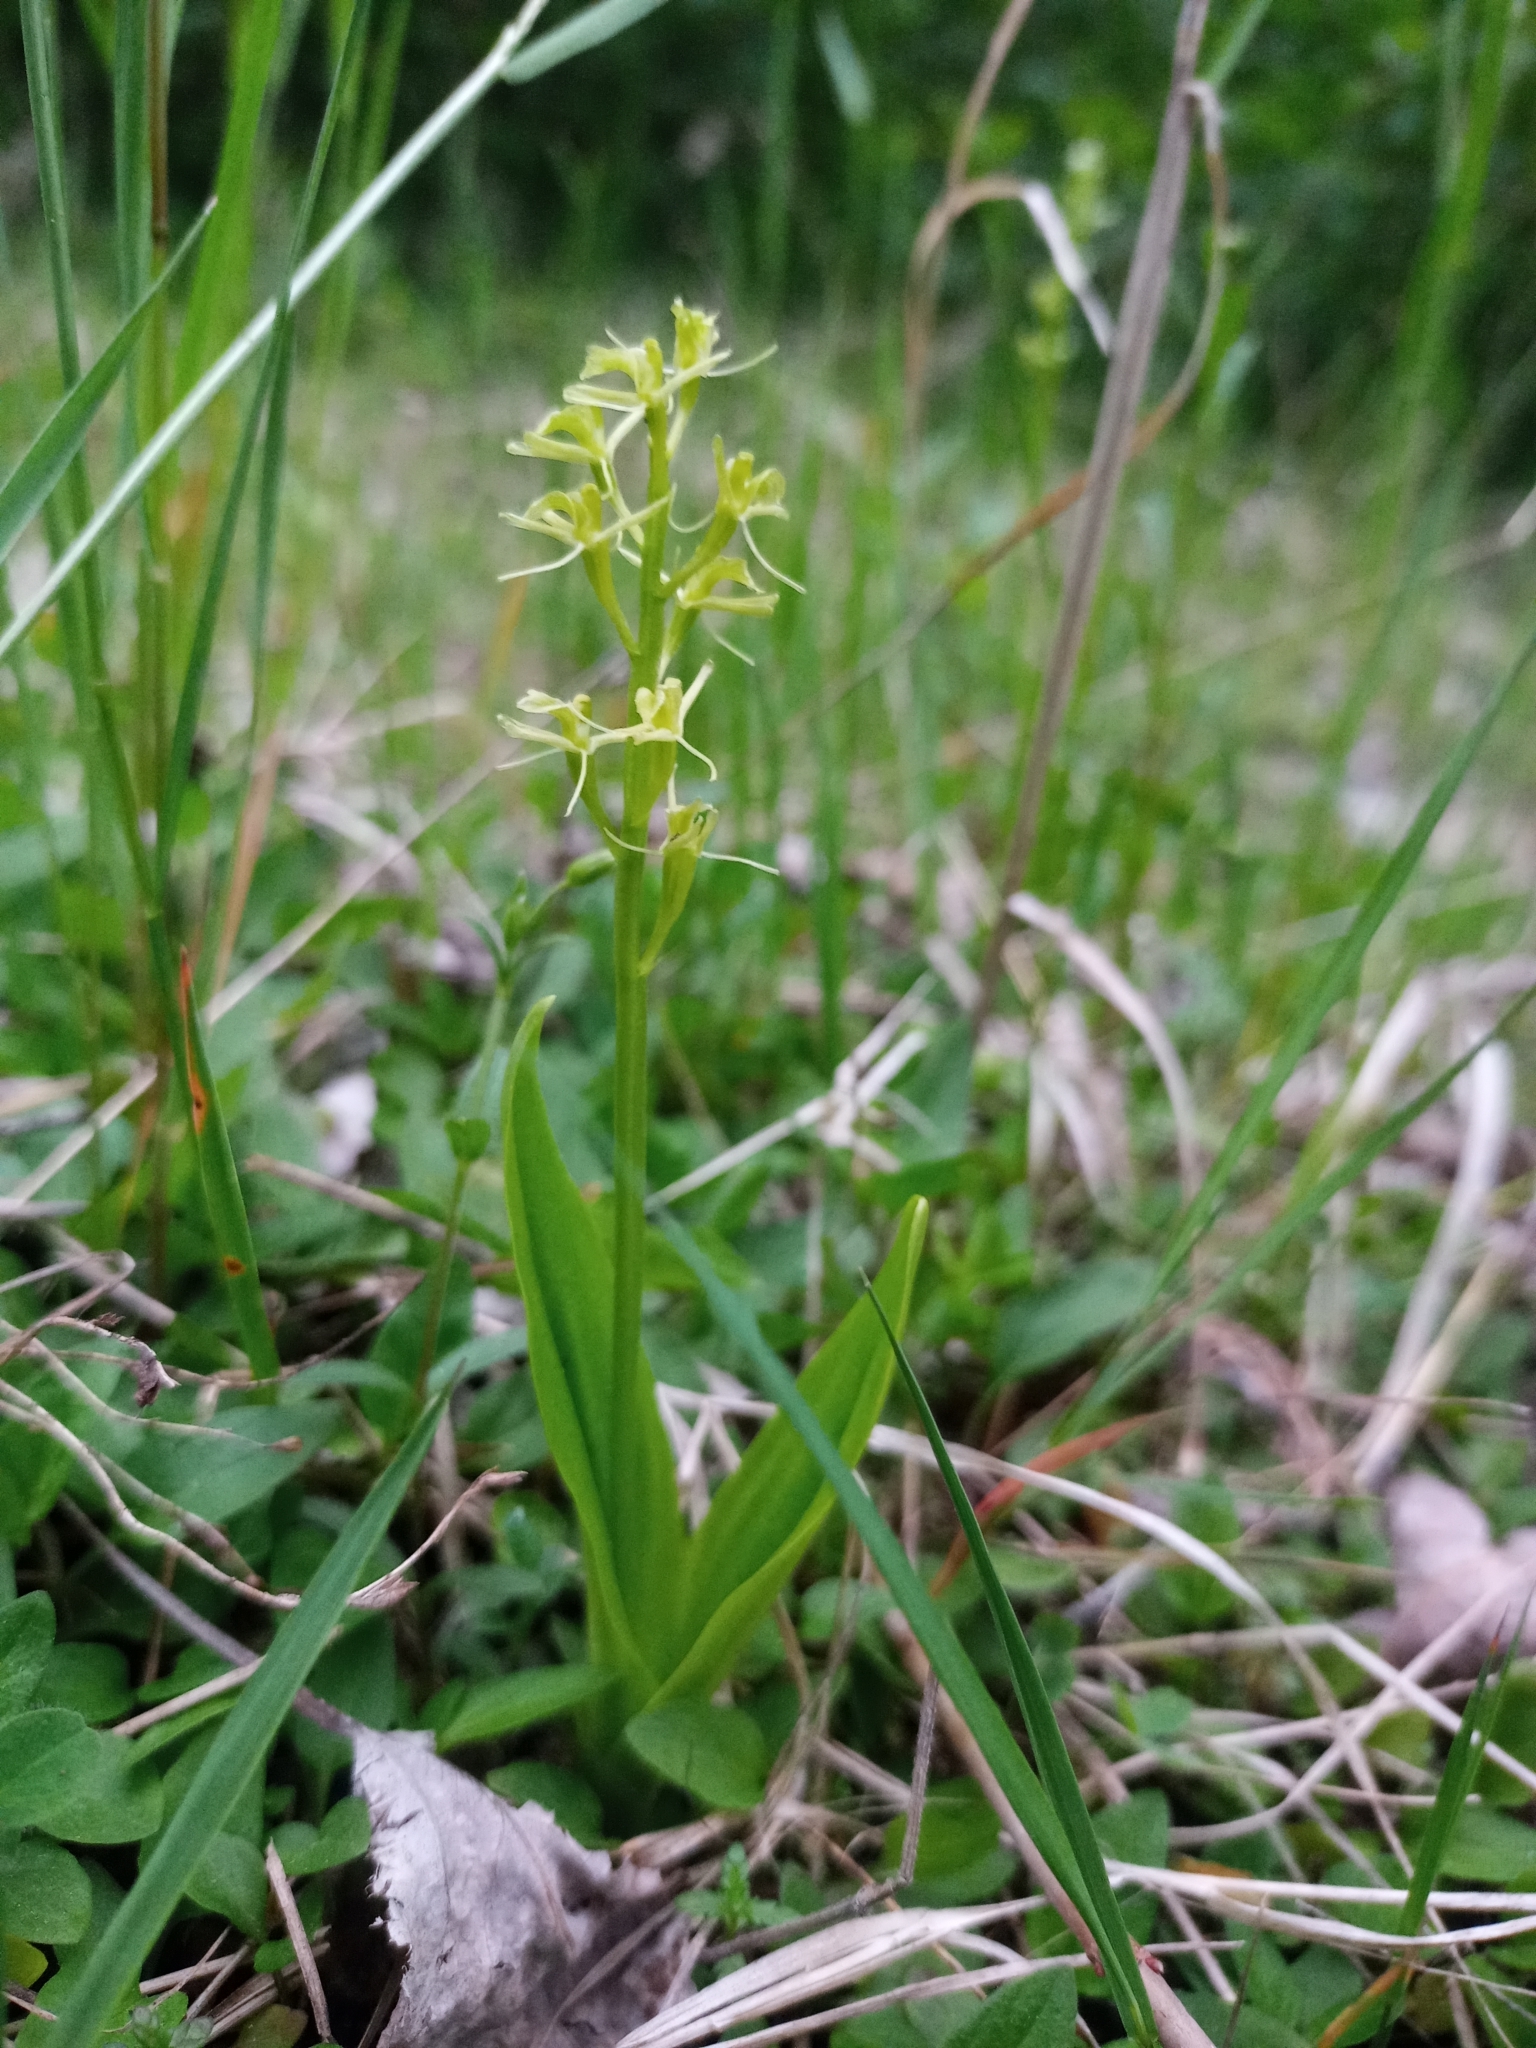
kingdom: Animalia
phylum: Arthropoda
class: Insecta
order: Coleoptera
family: Curculionidae
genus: Liparis
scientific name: Liparis loeselii
